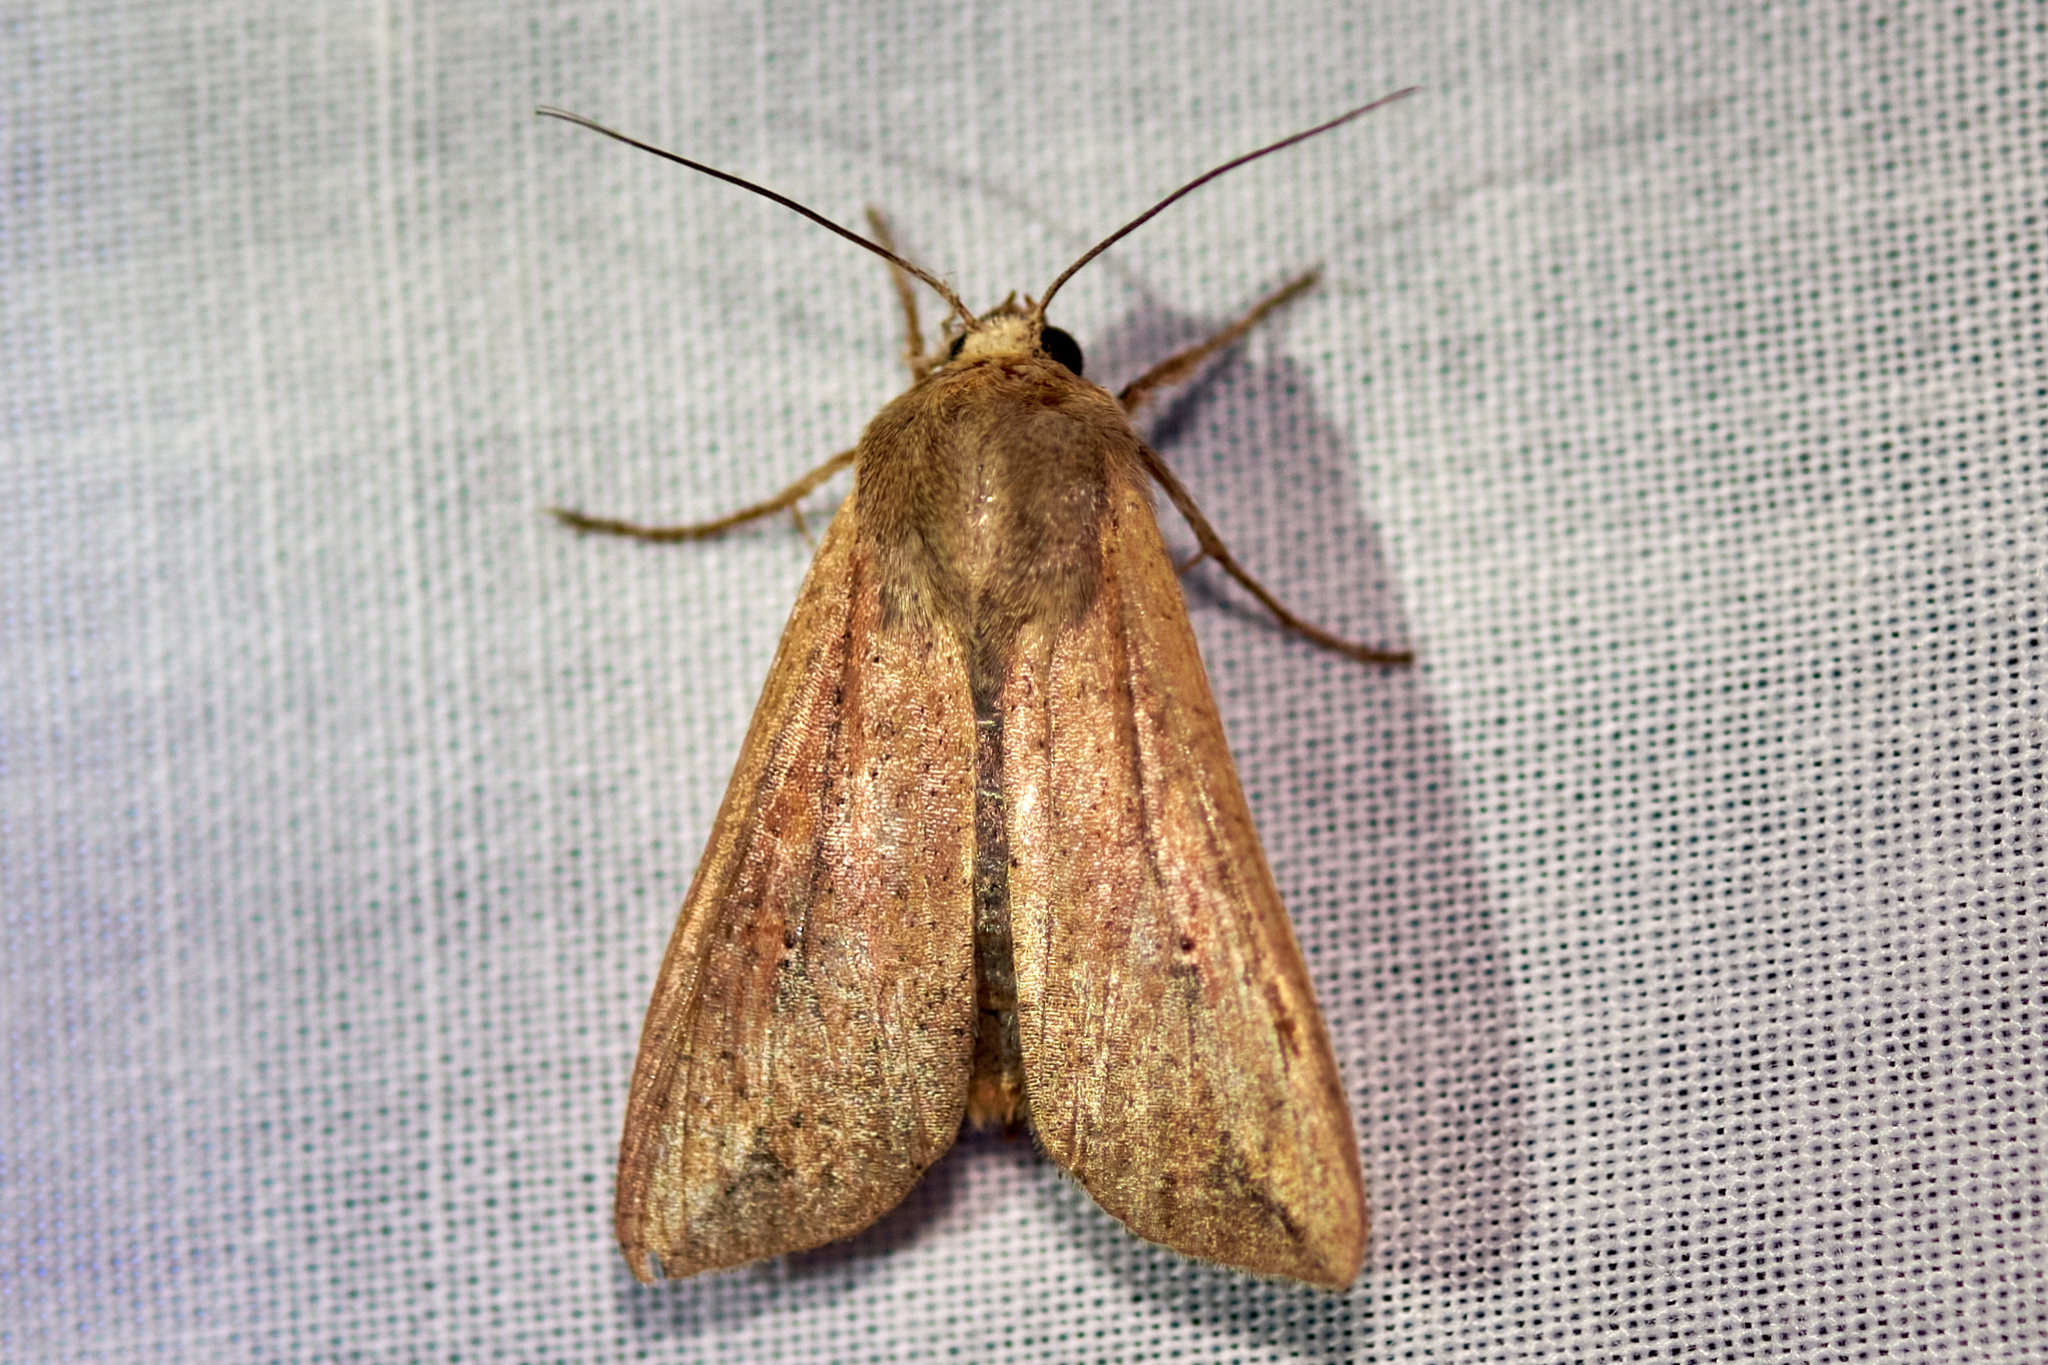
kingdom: Animalia
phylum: Arthropoda
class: Insecta
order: Lepidoptera
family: Noctuidae
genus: Mythimna
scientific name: Mythimna unipuncta
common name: White-speck
